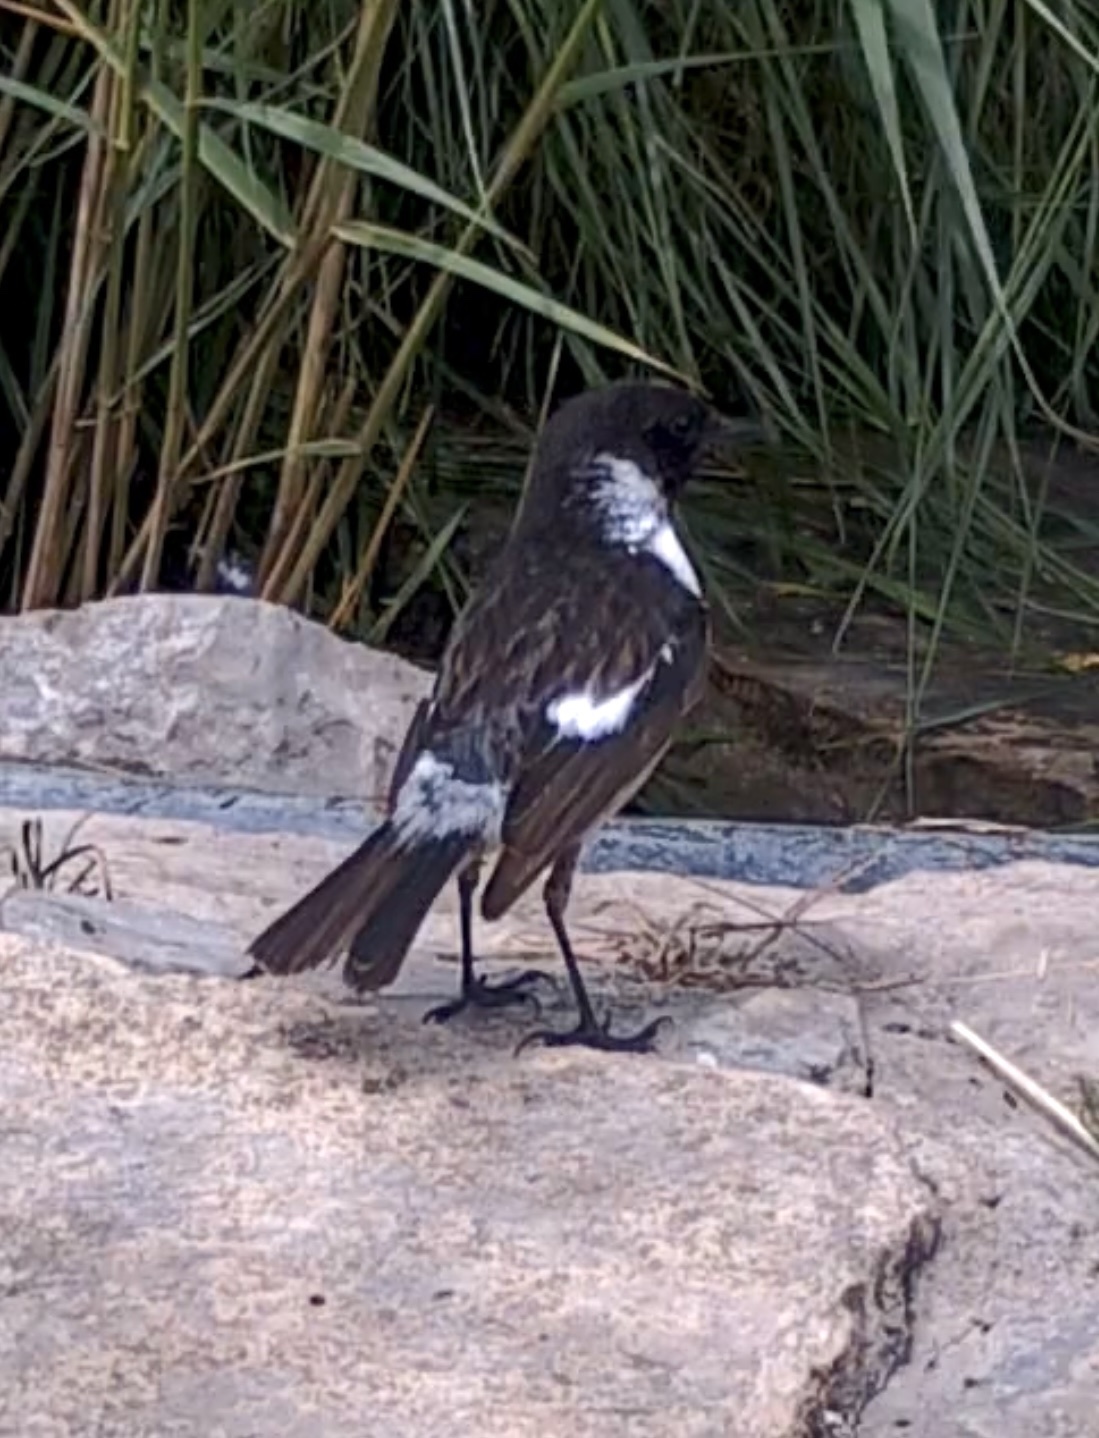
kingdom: Animalia
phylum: Chordata
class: Aves
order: Passeriformes
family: Muscicapidae
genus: Saxicola
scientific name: Saxicola rubicola
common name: European stonechat
